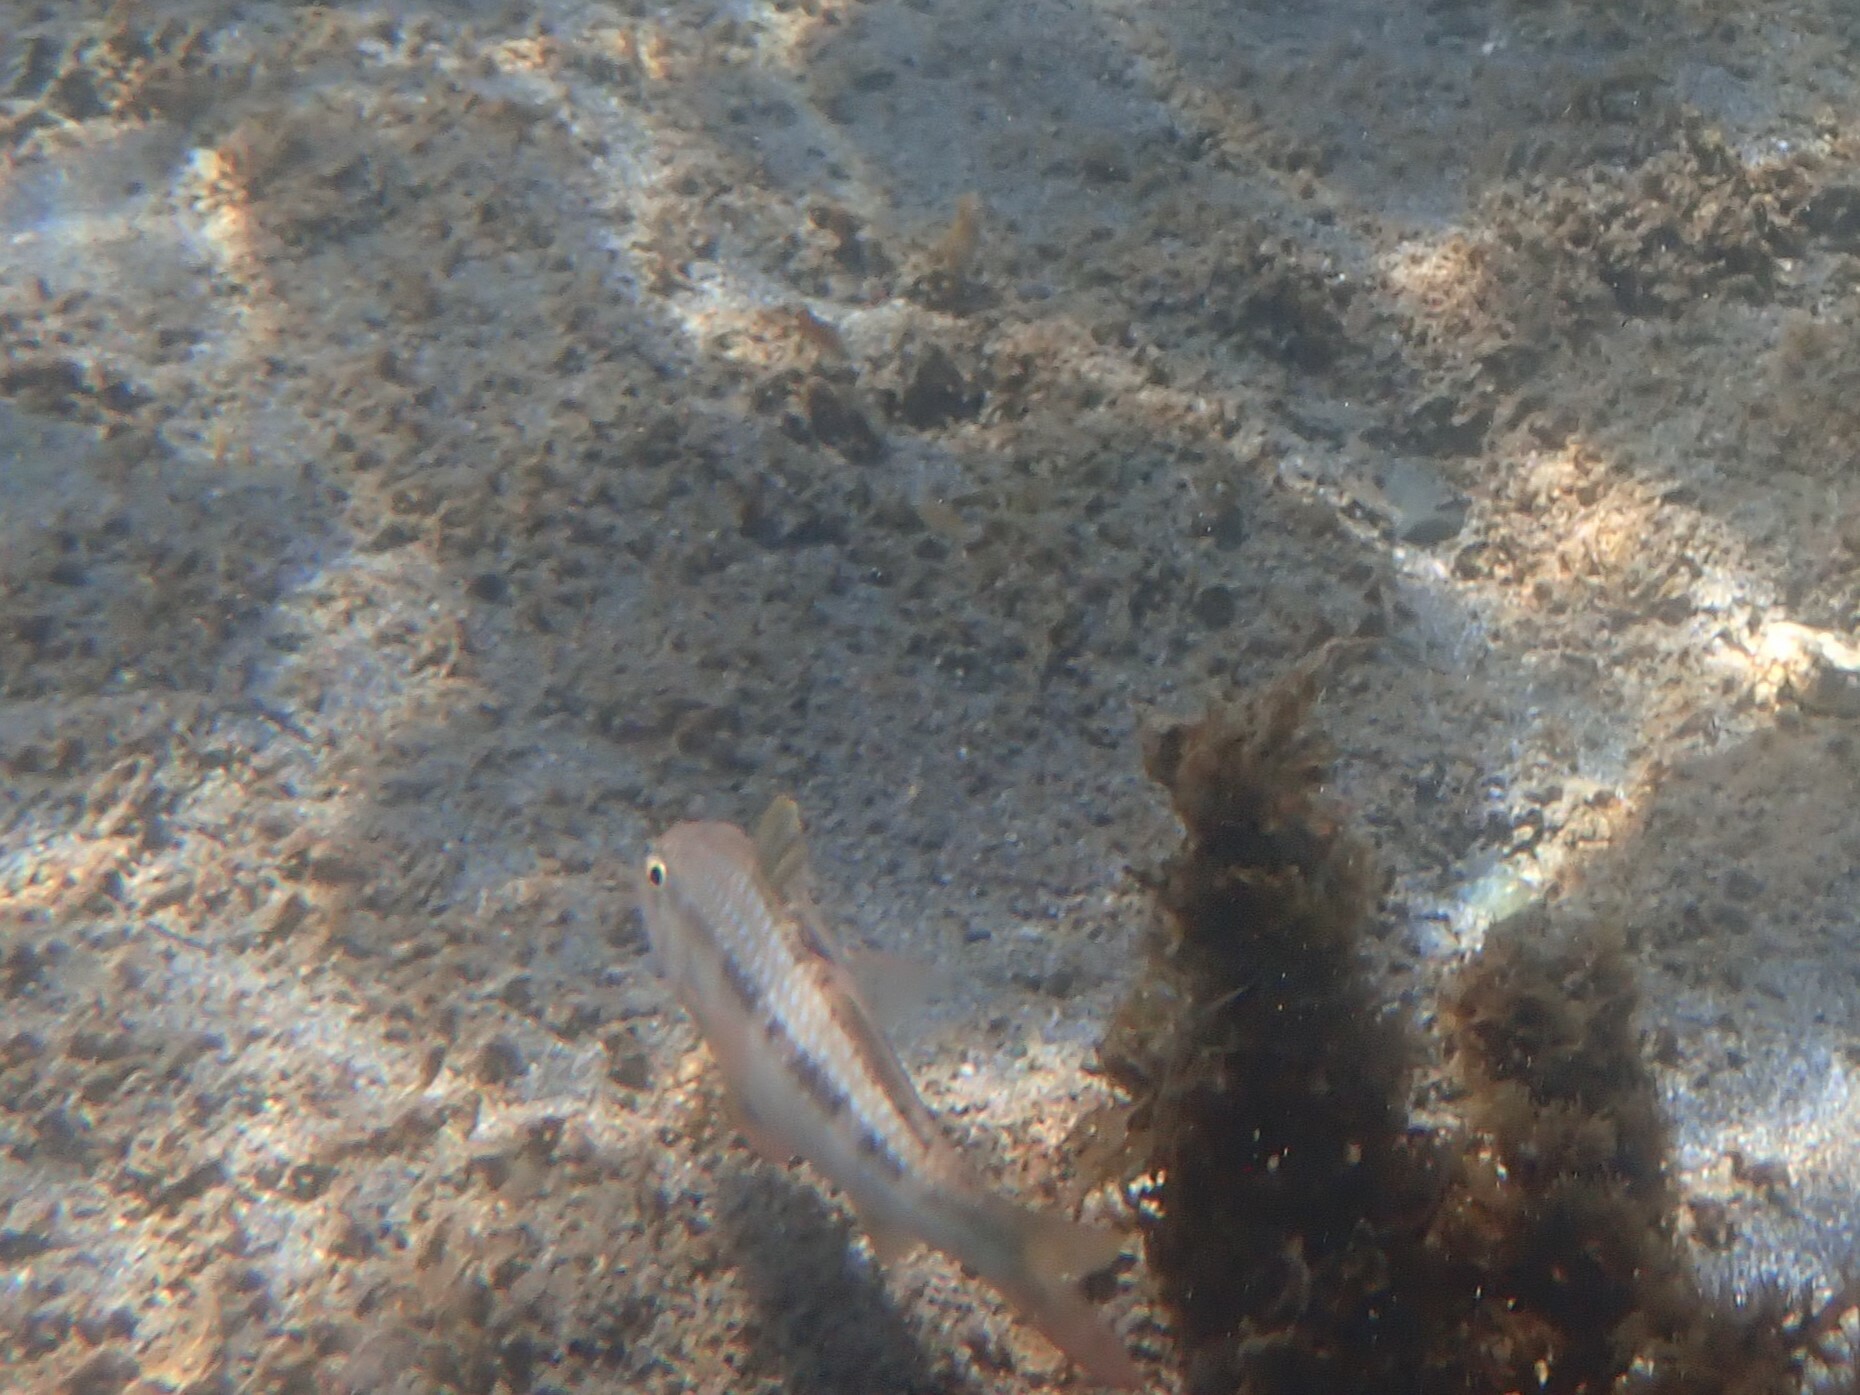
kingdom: Animalia
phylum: Chordata
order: Perciformes
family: Mullidae
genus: Upeneichthys
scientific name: Upeneichthys lineatus
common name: Red mullet
